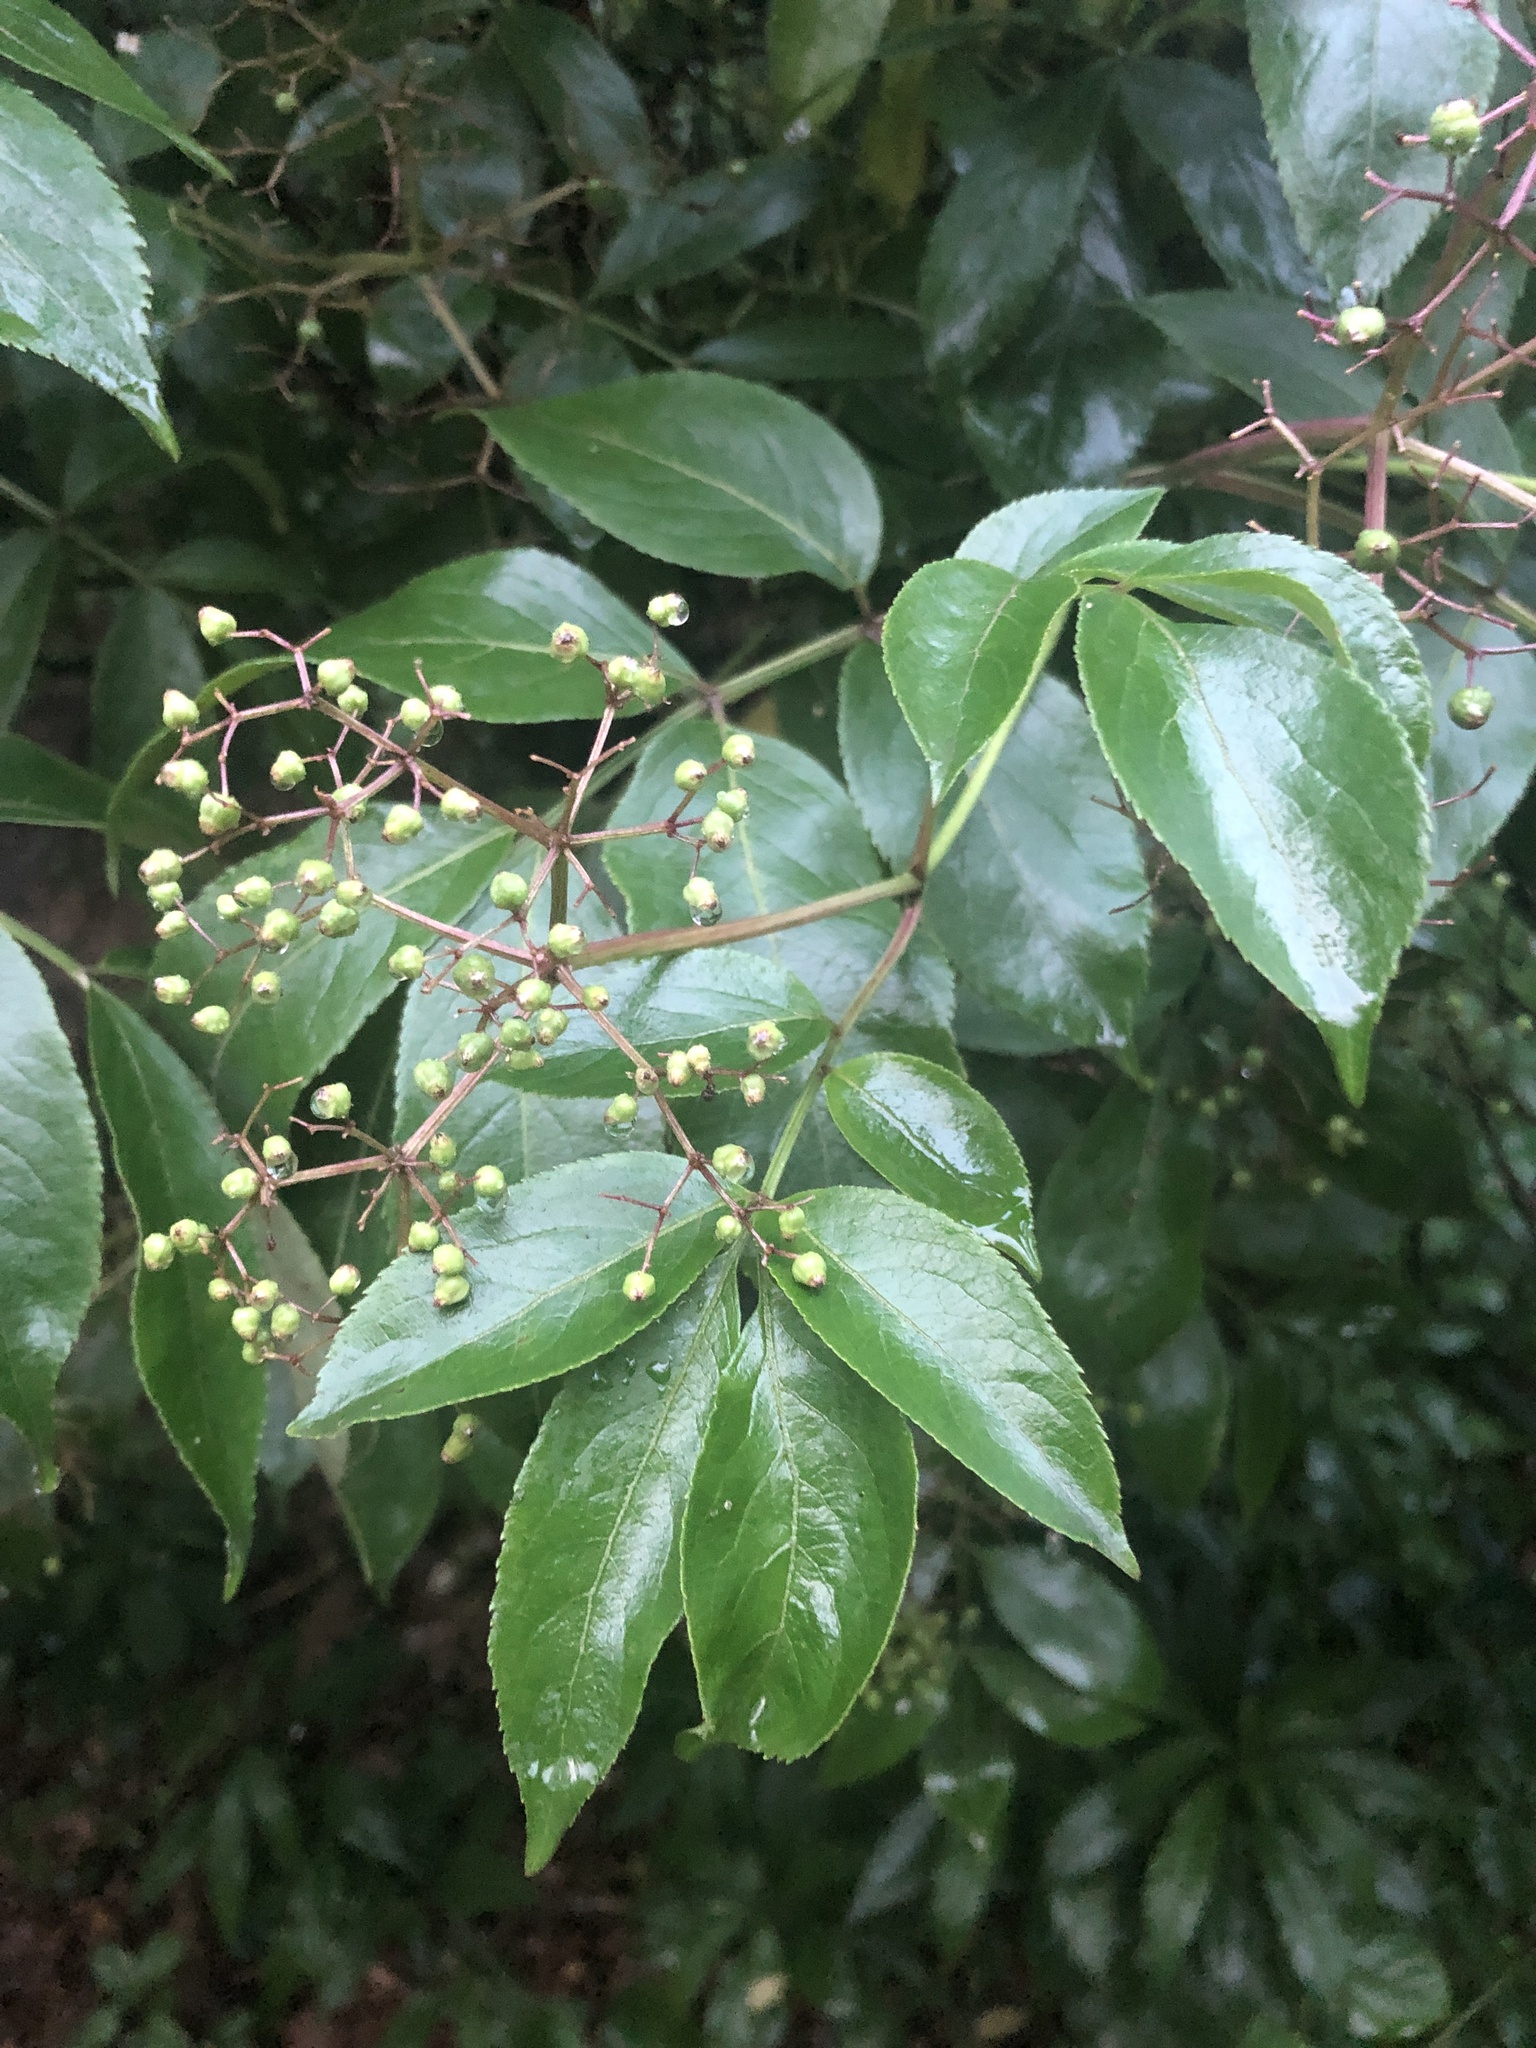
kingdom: Plantae
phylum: Tracheophyta
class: Magnoliopsida
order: Dipsacales
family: Viburnaceae
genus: Sambucus
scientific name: Sambucus canadensis
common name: American elder
